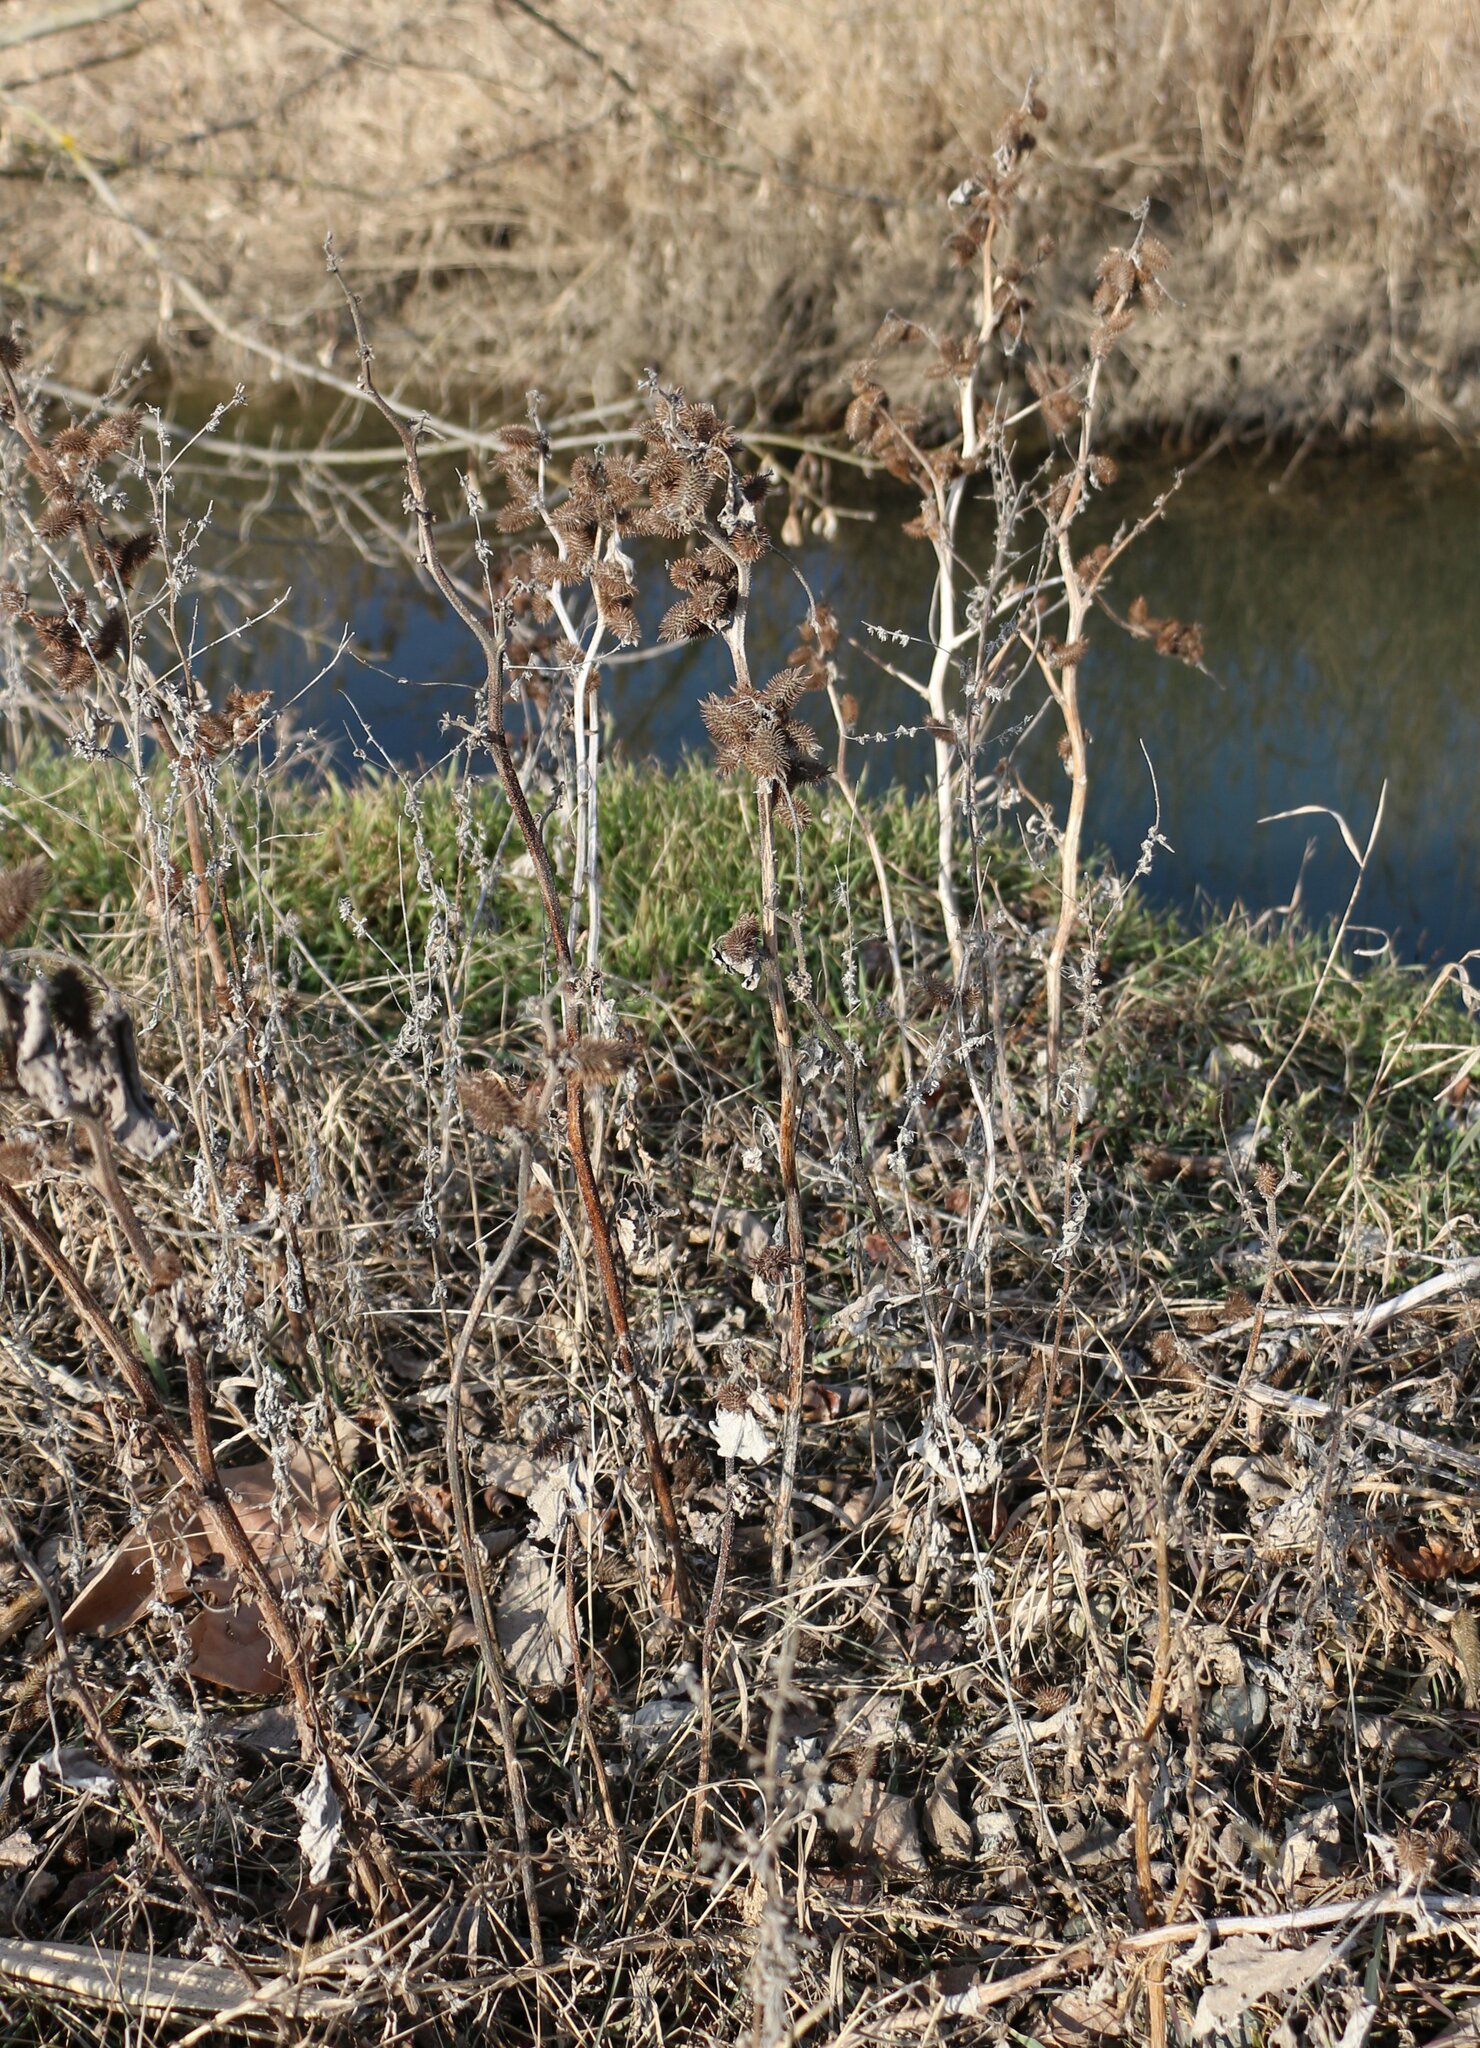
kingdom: Plantae
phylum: Tracheophyta
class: Magnoliopsida
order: Asterales
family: Asteraceae
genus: Xanthium
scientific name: Xanthium orientale
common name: Californian burr
